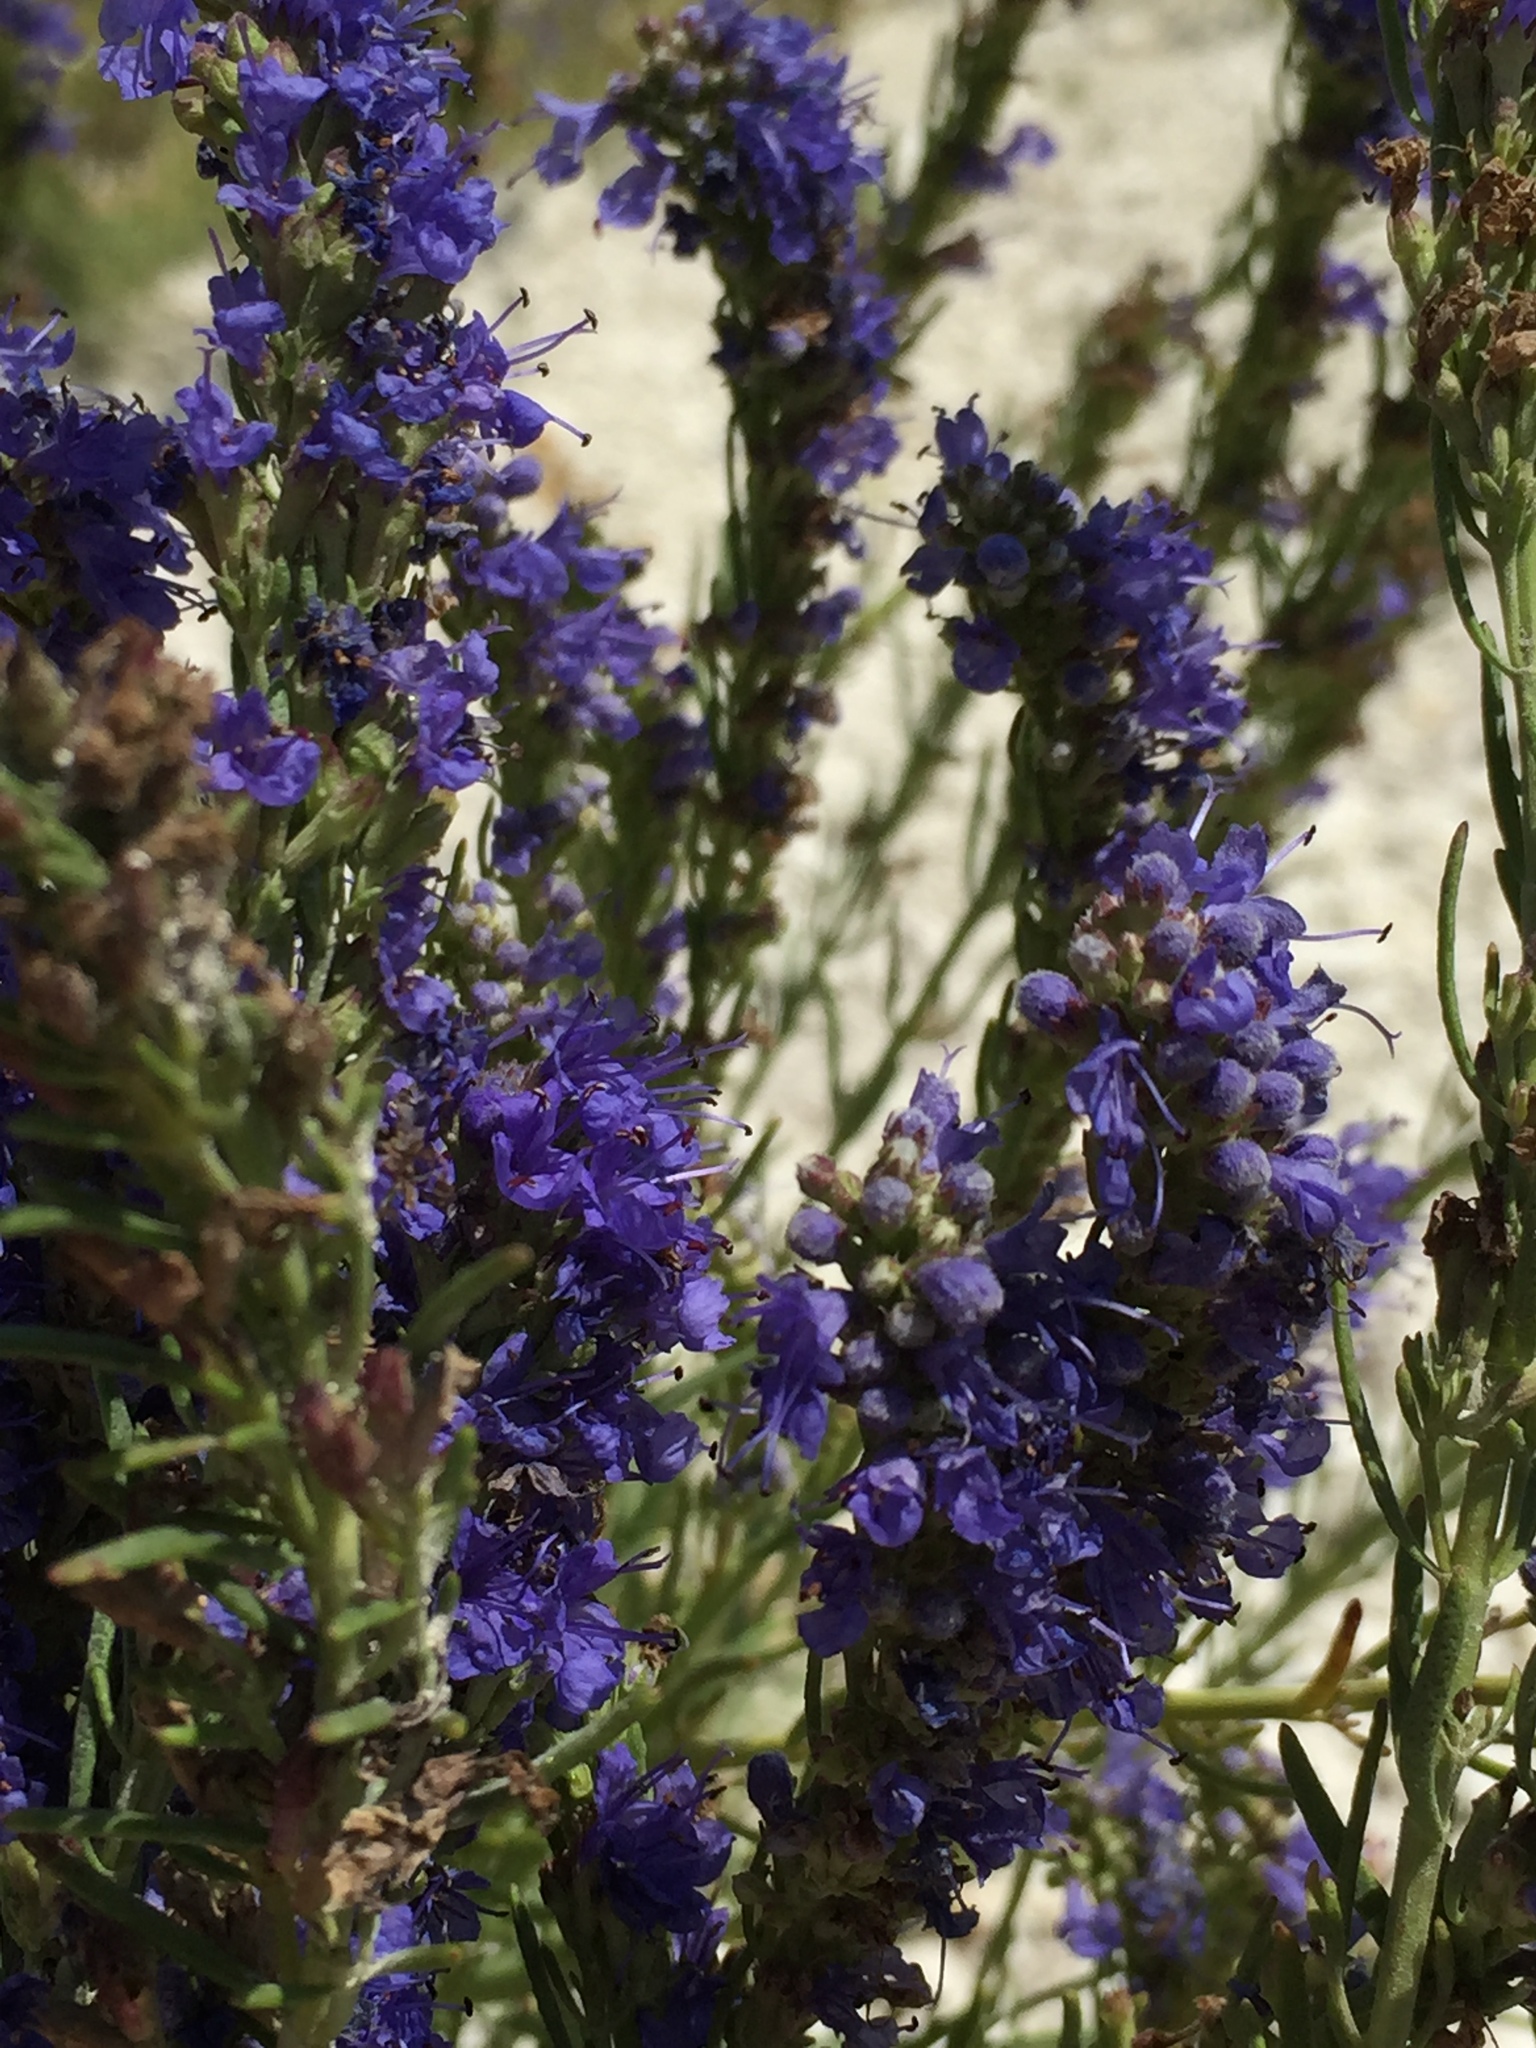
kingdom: Plantae
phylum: Tracheophyta
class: Magnoliopsida
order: Lamiales
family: Lamiaceae
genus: Hyssopus
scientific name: Hyssopus officinalis
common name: Hyssop
